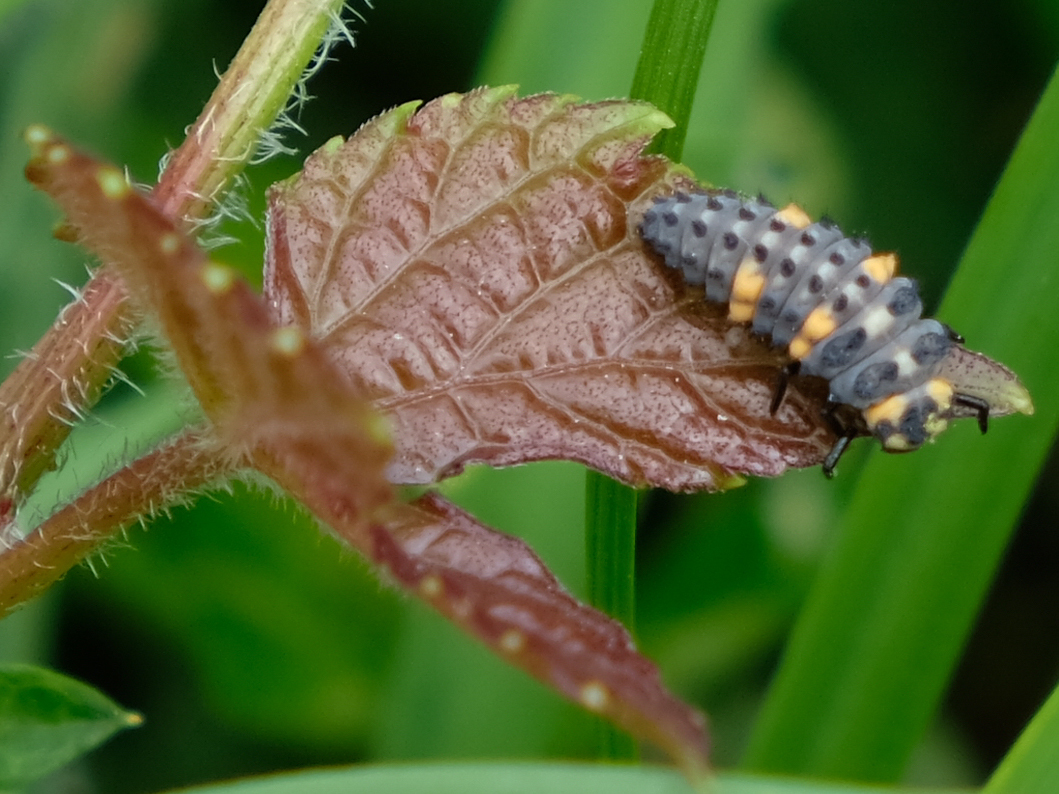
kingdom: Animalia
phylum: Arthropoda
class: Insecta
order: Coleoptera
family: Coccinellidae
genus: Coccinella
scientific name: Coccinella septempunctata
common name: Sevenspotted lady beetle
